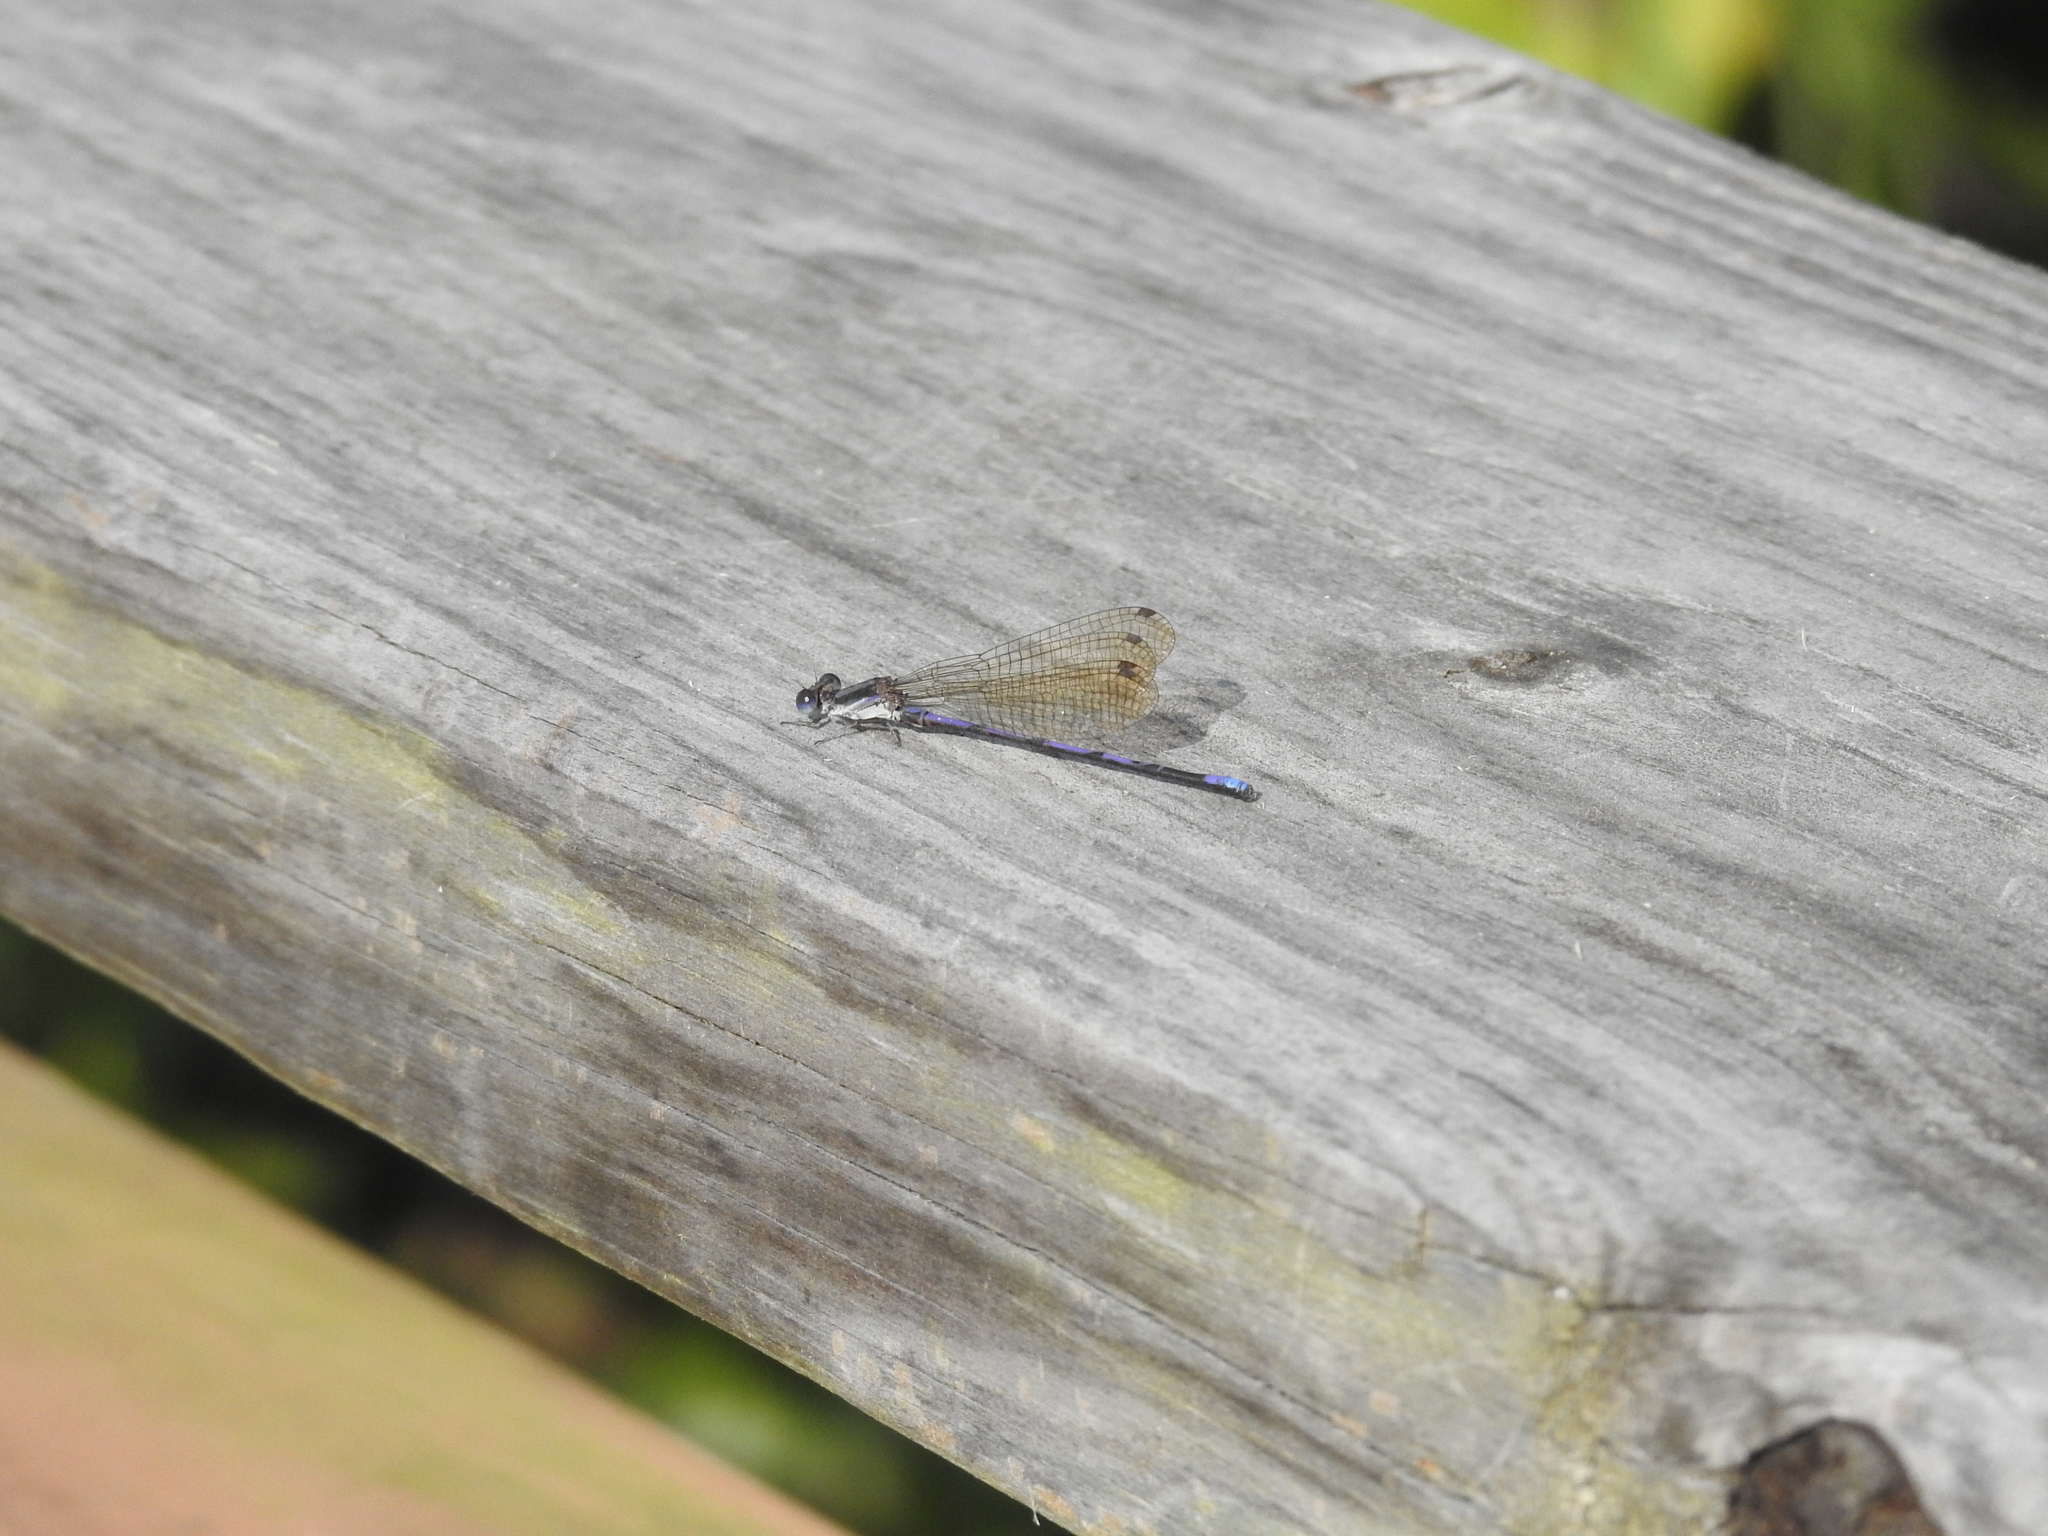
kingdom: Animalia
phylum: Arthropoda
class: Insecta
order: Odonata
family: Coenagrionidae
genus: Argia
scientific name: Argia fumipennis
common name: Variable dancer
